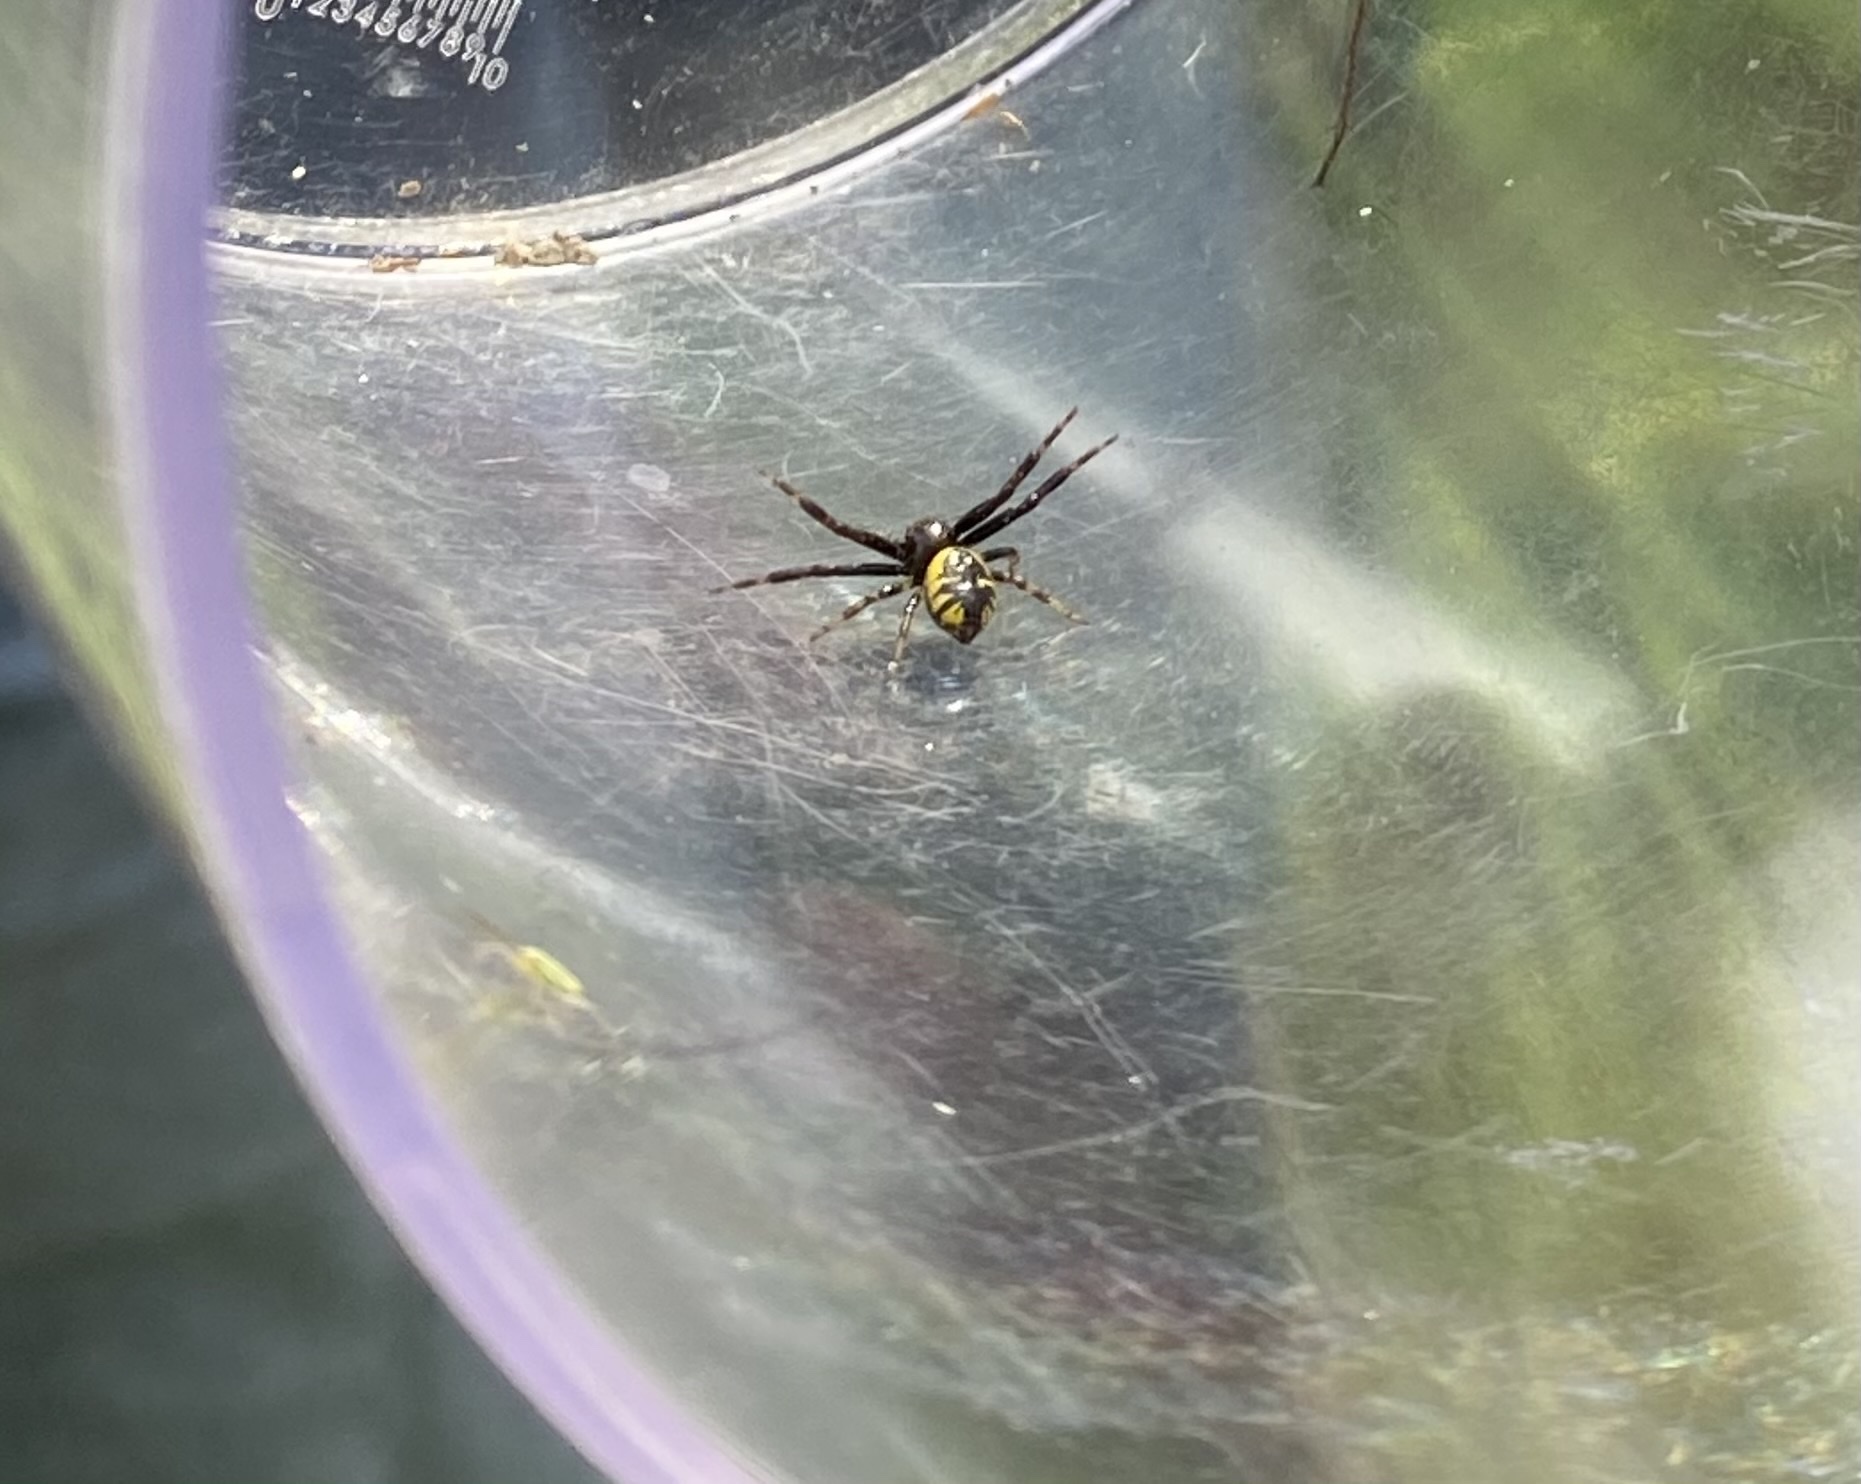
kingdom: Animalia
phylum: Arthropoda
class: Arachnida
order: Araneae
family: Thomisidae
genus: Synema
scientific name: Synema globosum
